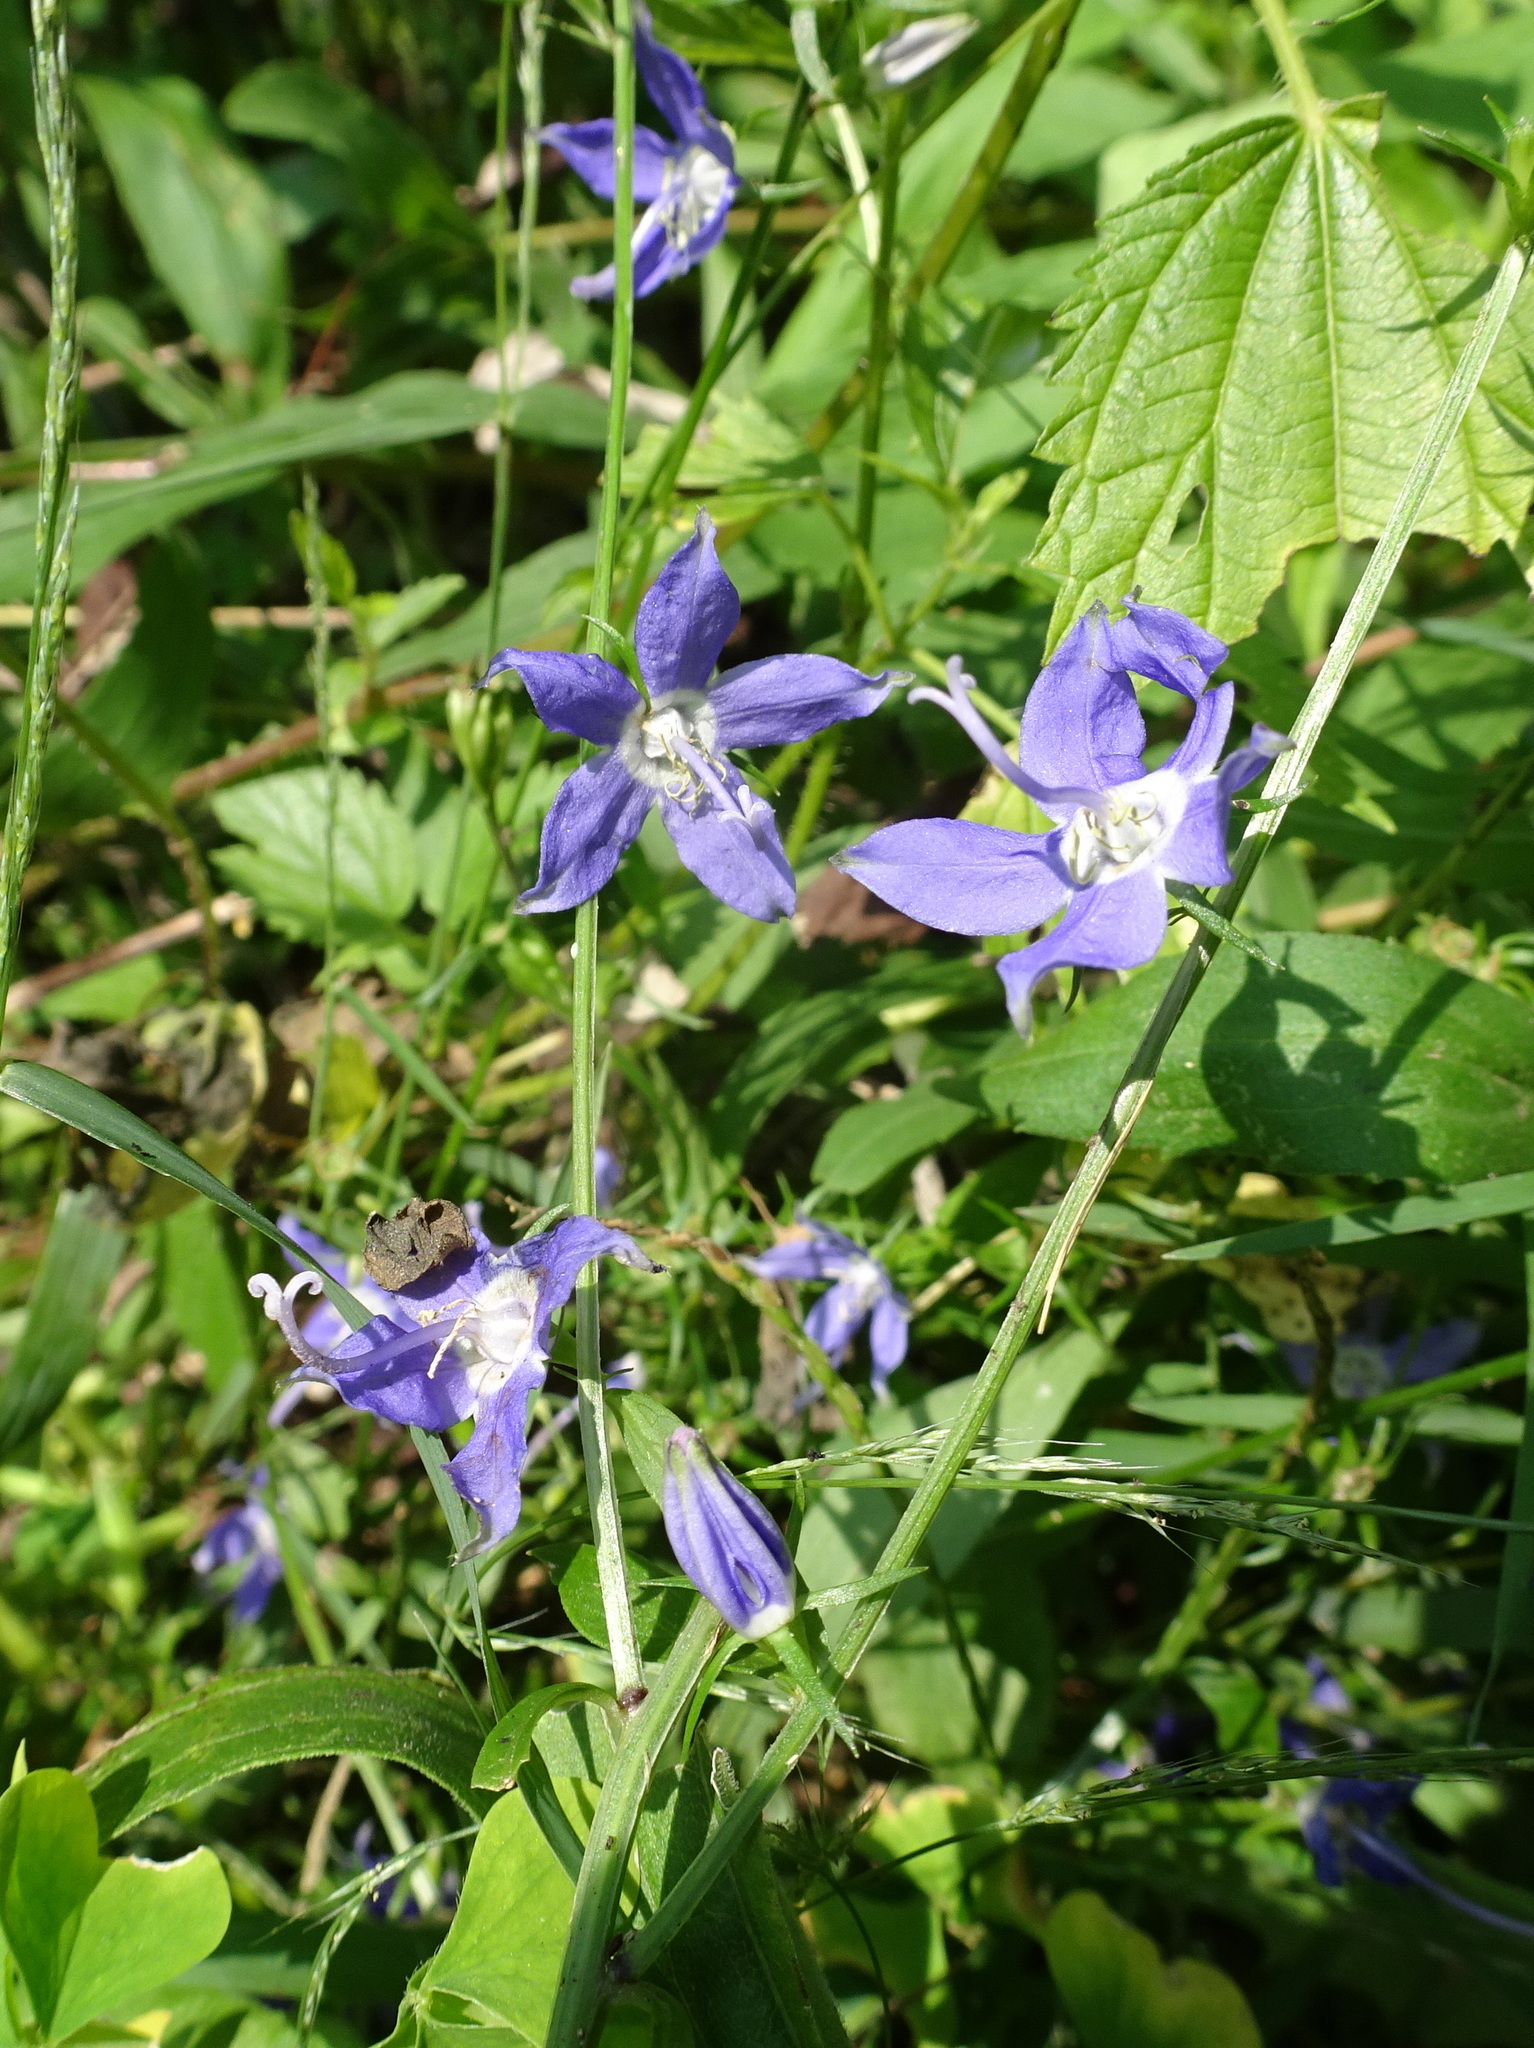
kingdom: Plantae
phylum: Tracheophyta
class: Magnoliopsida
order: Asterales
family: Campanulaceae
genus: Campanulastrum
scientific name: Campanulastrum americanum
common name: American bellflower
